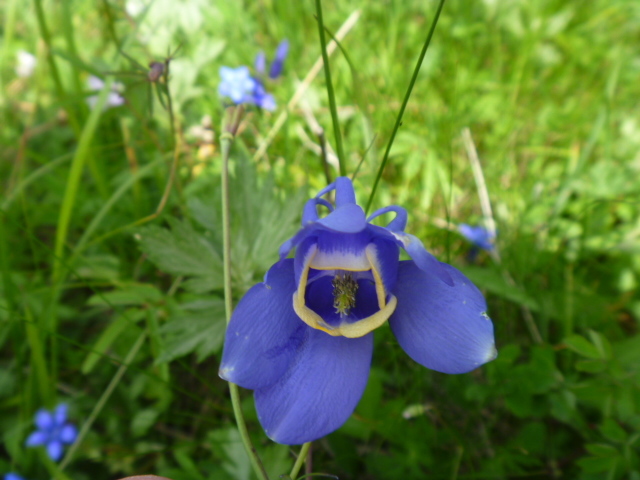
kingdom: Plantae
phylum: Tracheophyta
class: Magnoliopsida
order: Ranunculales
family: Ranunculaceae
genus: Aquilegia
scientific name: Aquilegia flabellata
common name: Fan columbine
